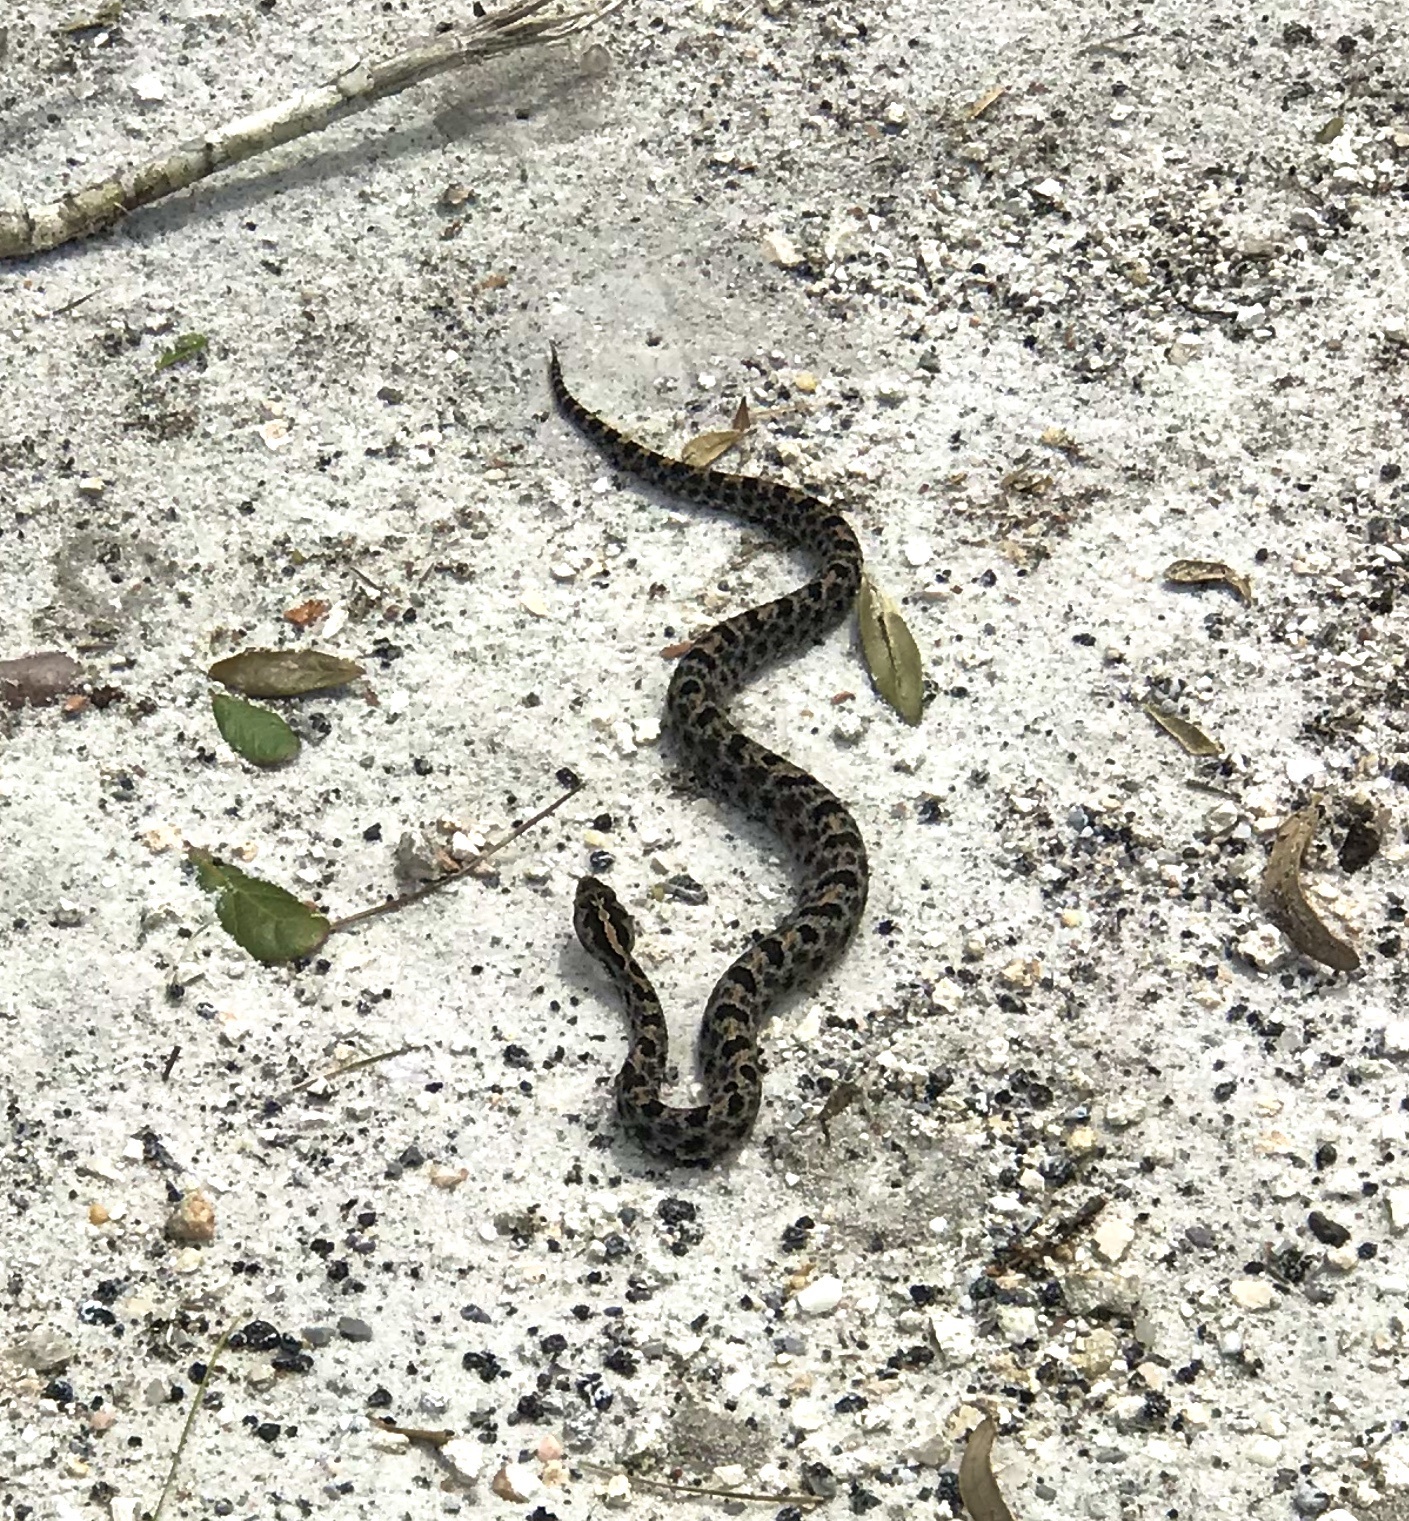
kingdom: Animalia
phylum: Chordata
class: Squamata
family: Viperidae
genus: Sistrurus
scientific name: Sistrurus miliarius
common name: Pygmy rattlesnake
